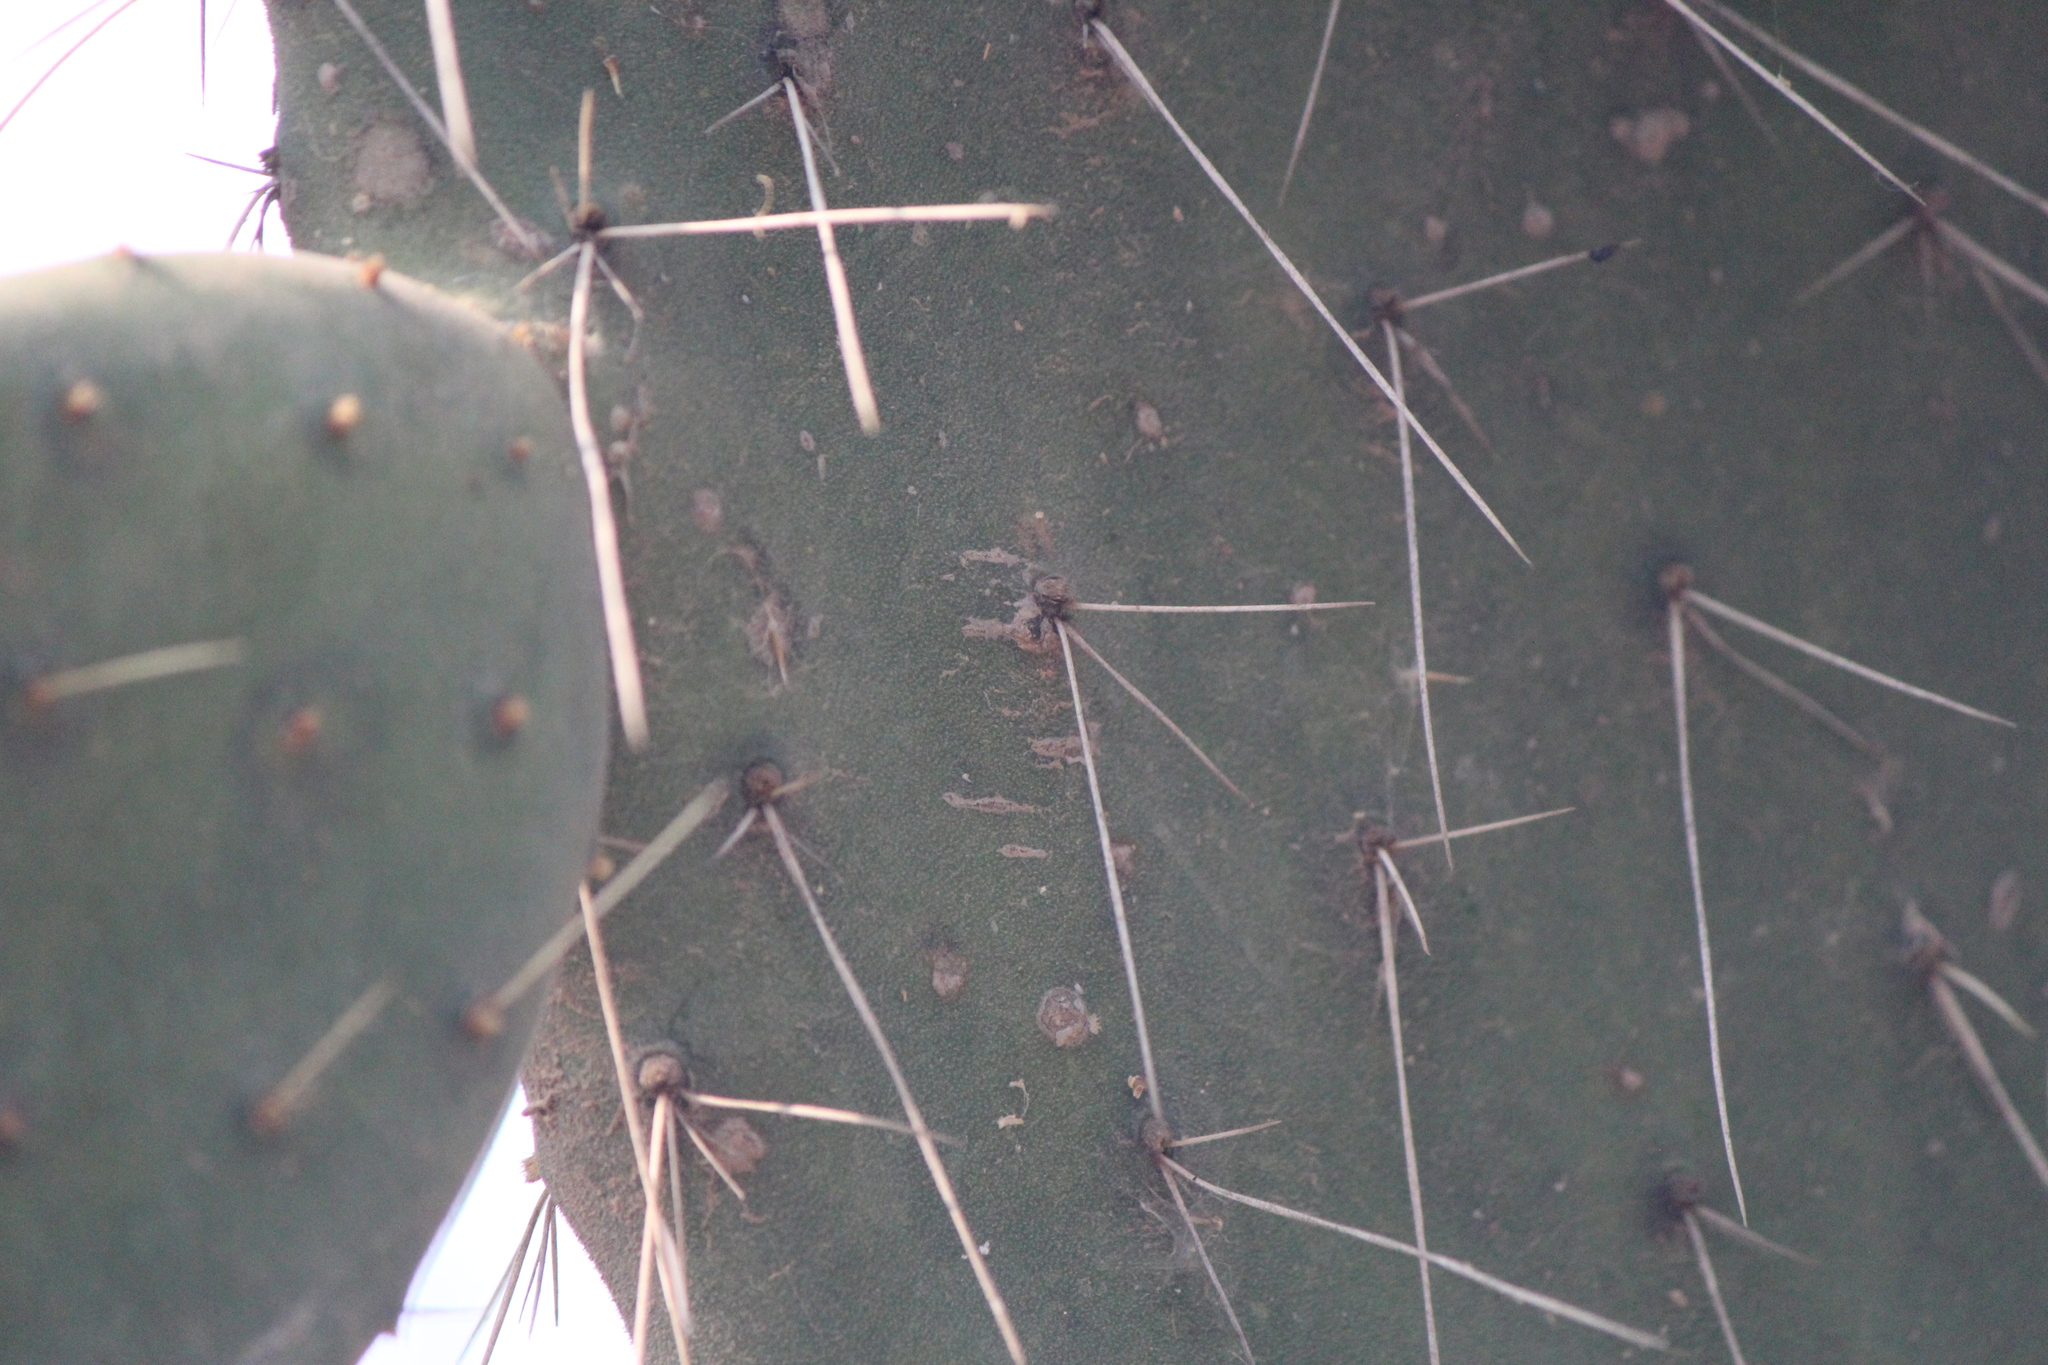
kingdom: Plantae
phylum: Tracheophyta
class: Magnoliopsida
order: Caryophyllales
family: Cactaceae
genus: Opuntia
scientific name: Opuntia tomentosa
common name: Woollyjoint pricklypear
